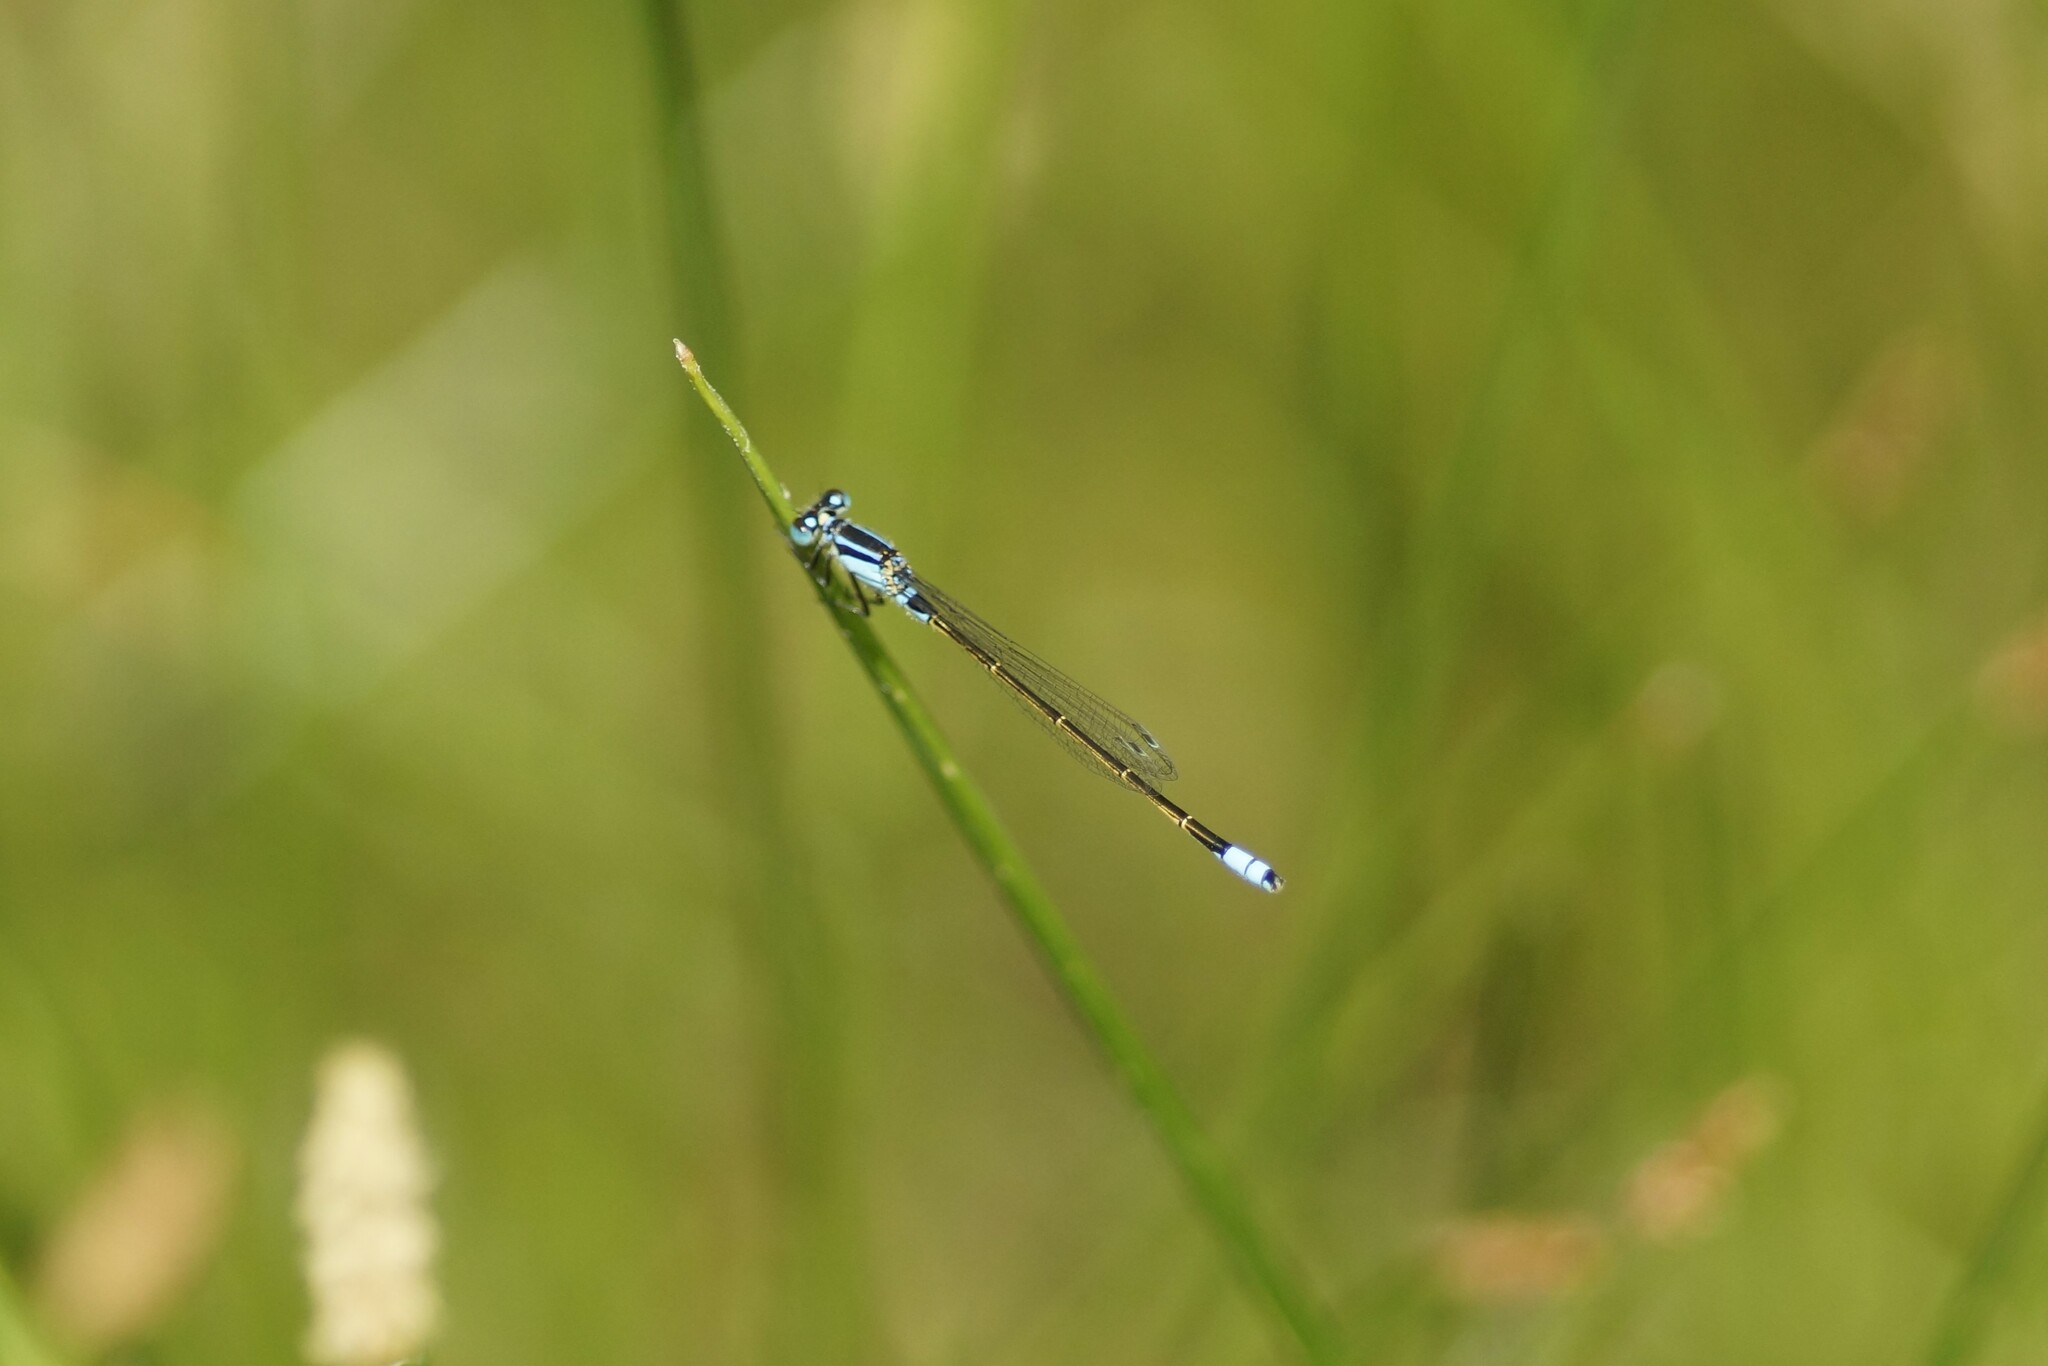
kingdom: Animalia
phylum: Arthropoda
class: Insecta
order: Odonata
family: Coenagrionidae
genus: Ischnura
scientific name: Ischnura heterosticta
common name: Common bluetail
